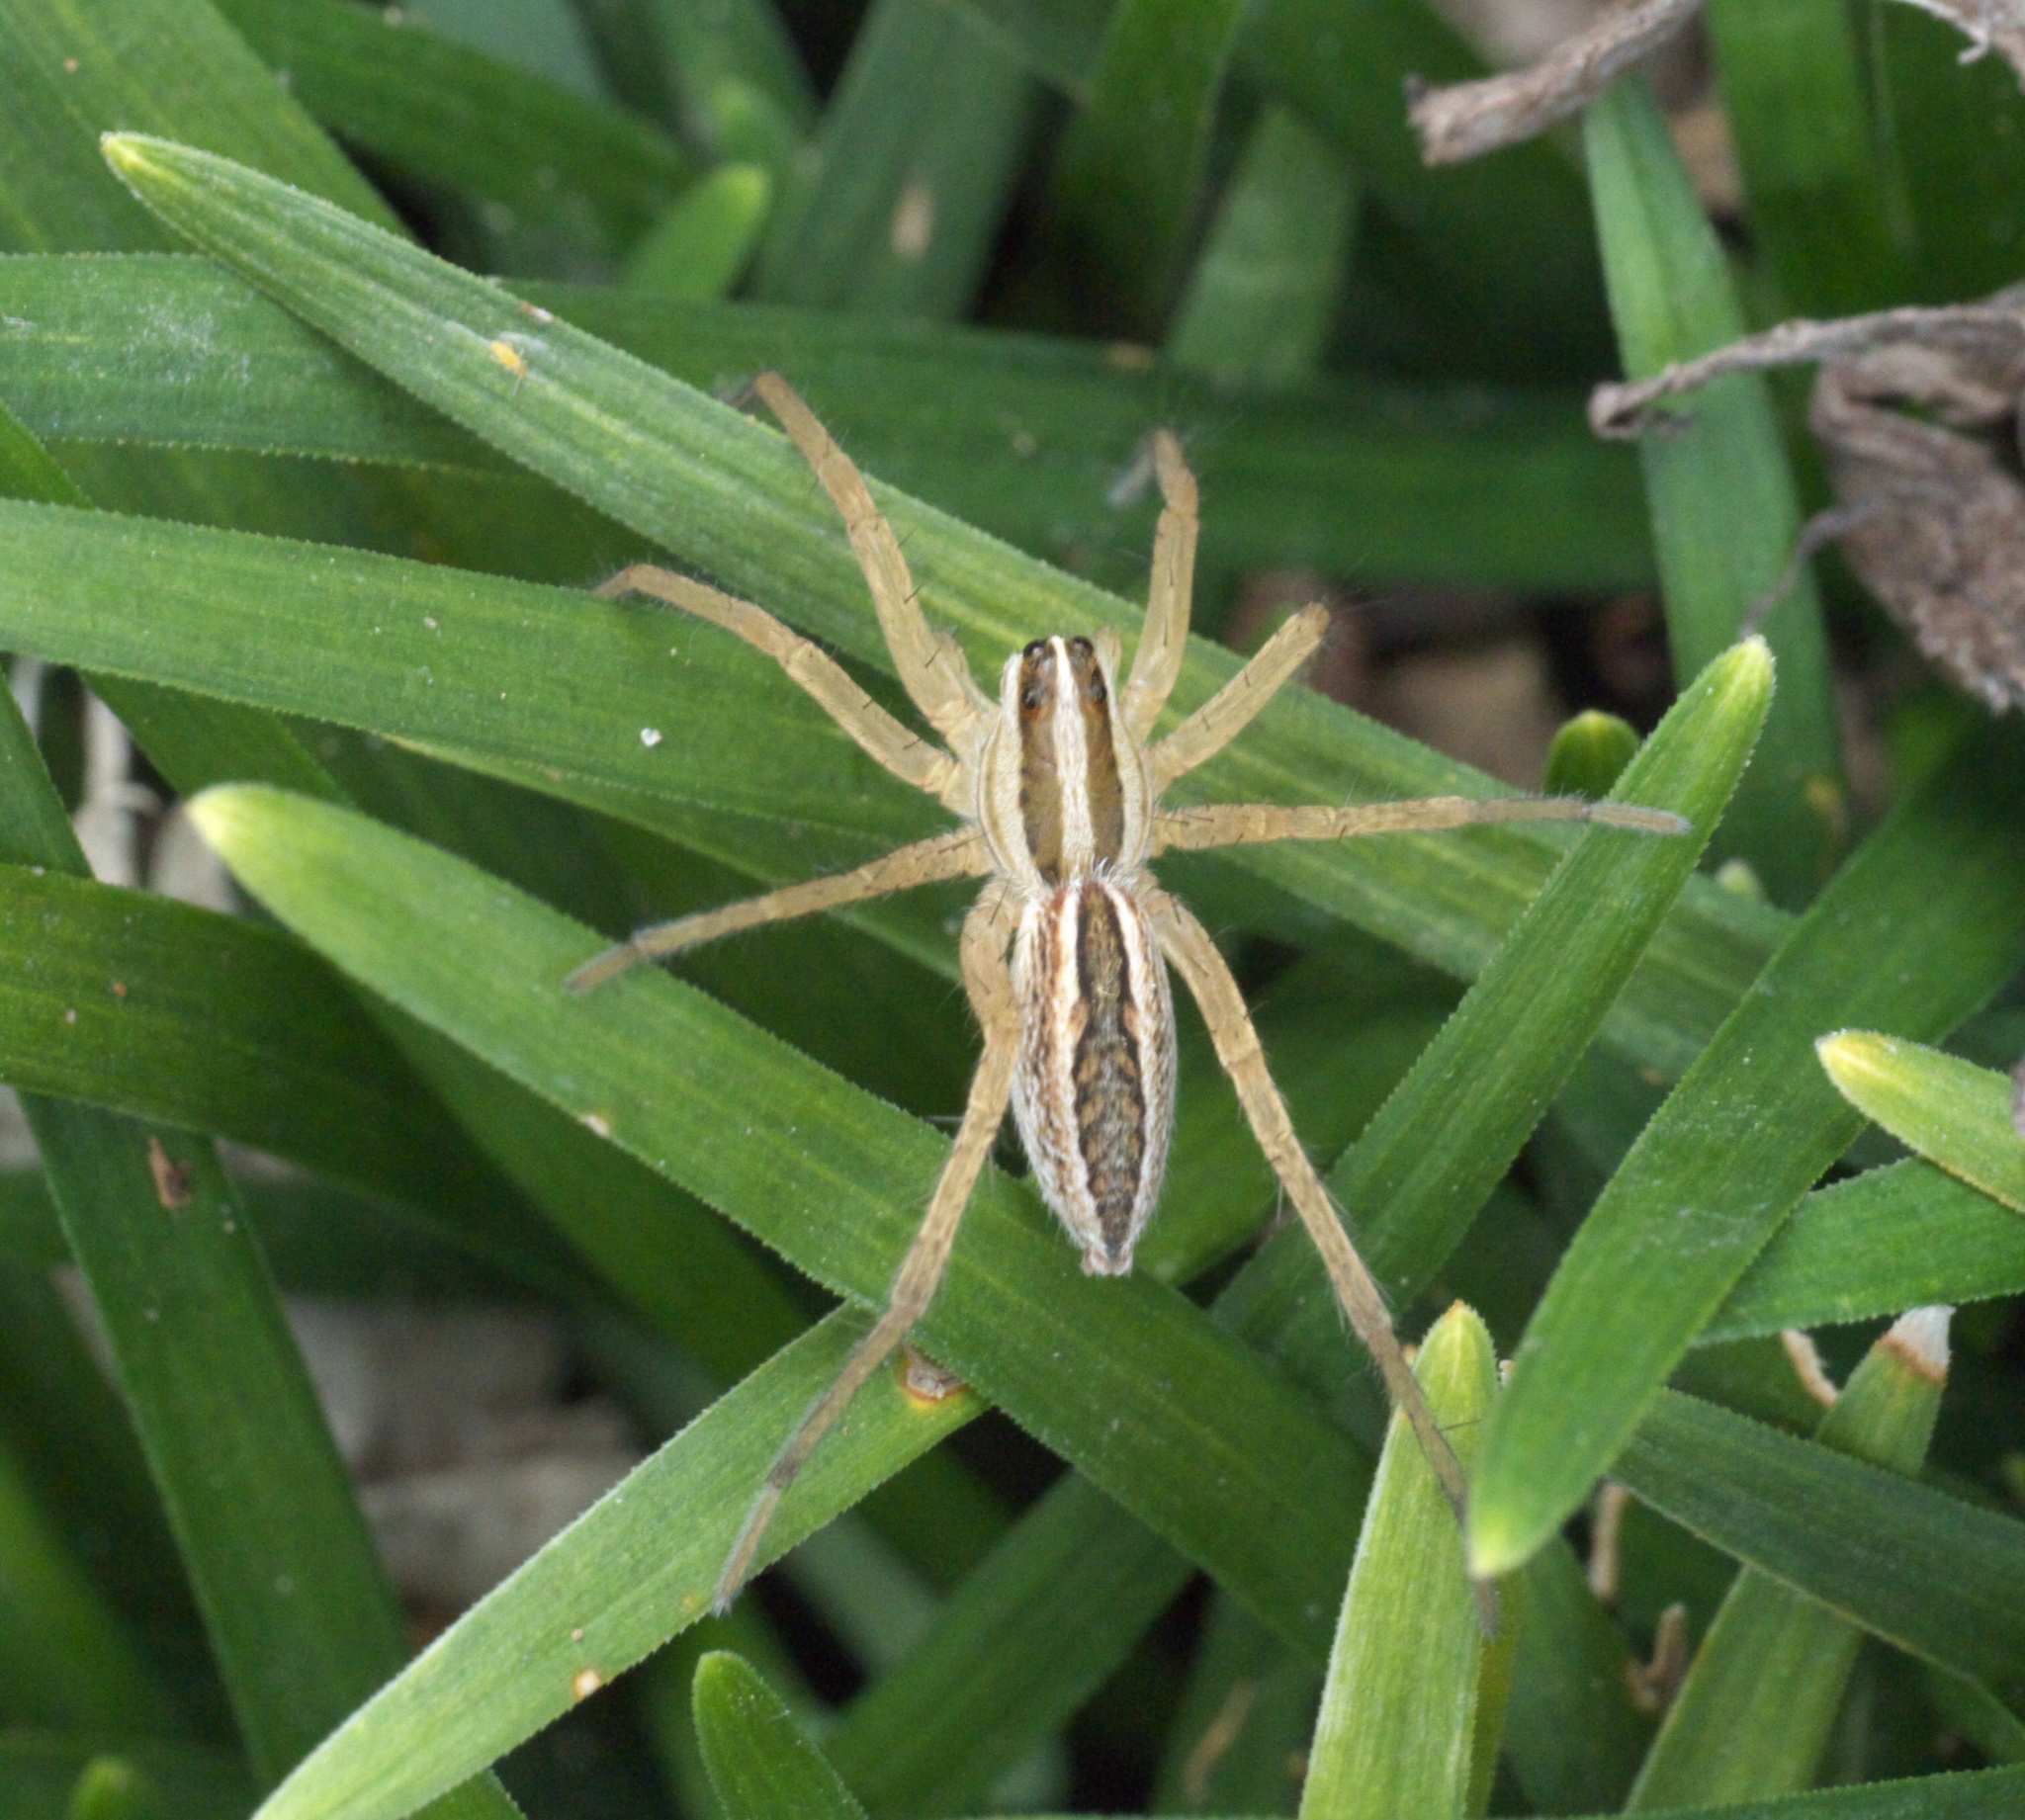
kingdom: Animalia
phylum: Arthropoda
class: Arachnida
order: Araneae
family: Lycosidae
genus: Rabidosa
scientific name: Rabidosa rabida
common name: Rabid wolf spider
